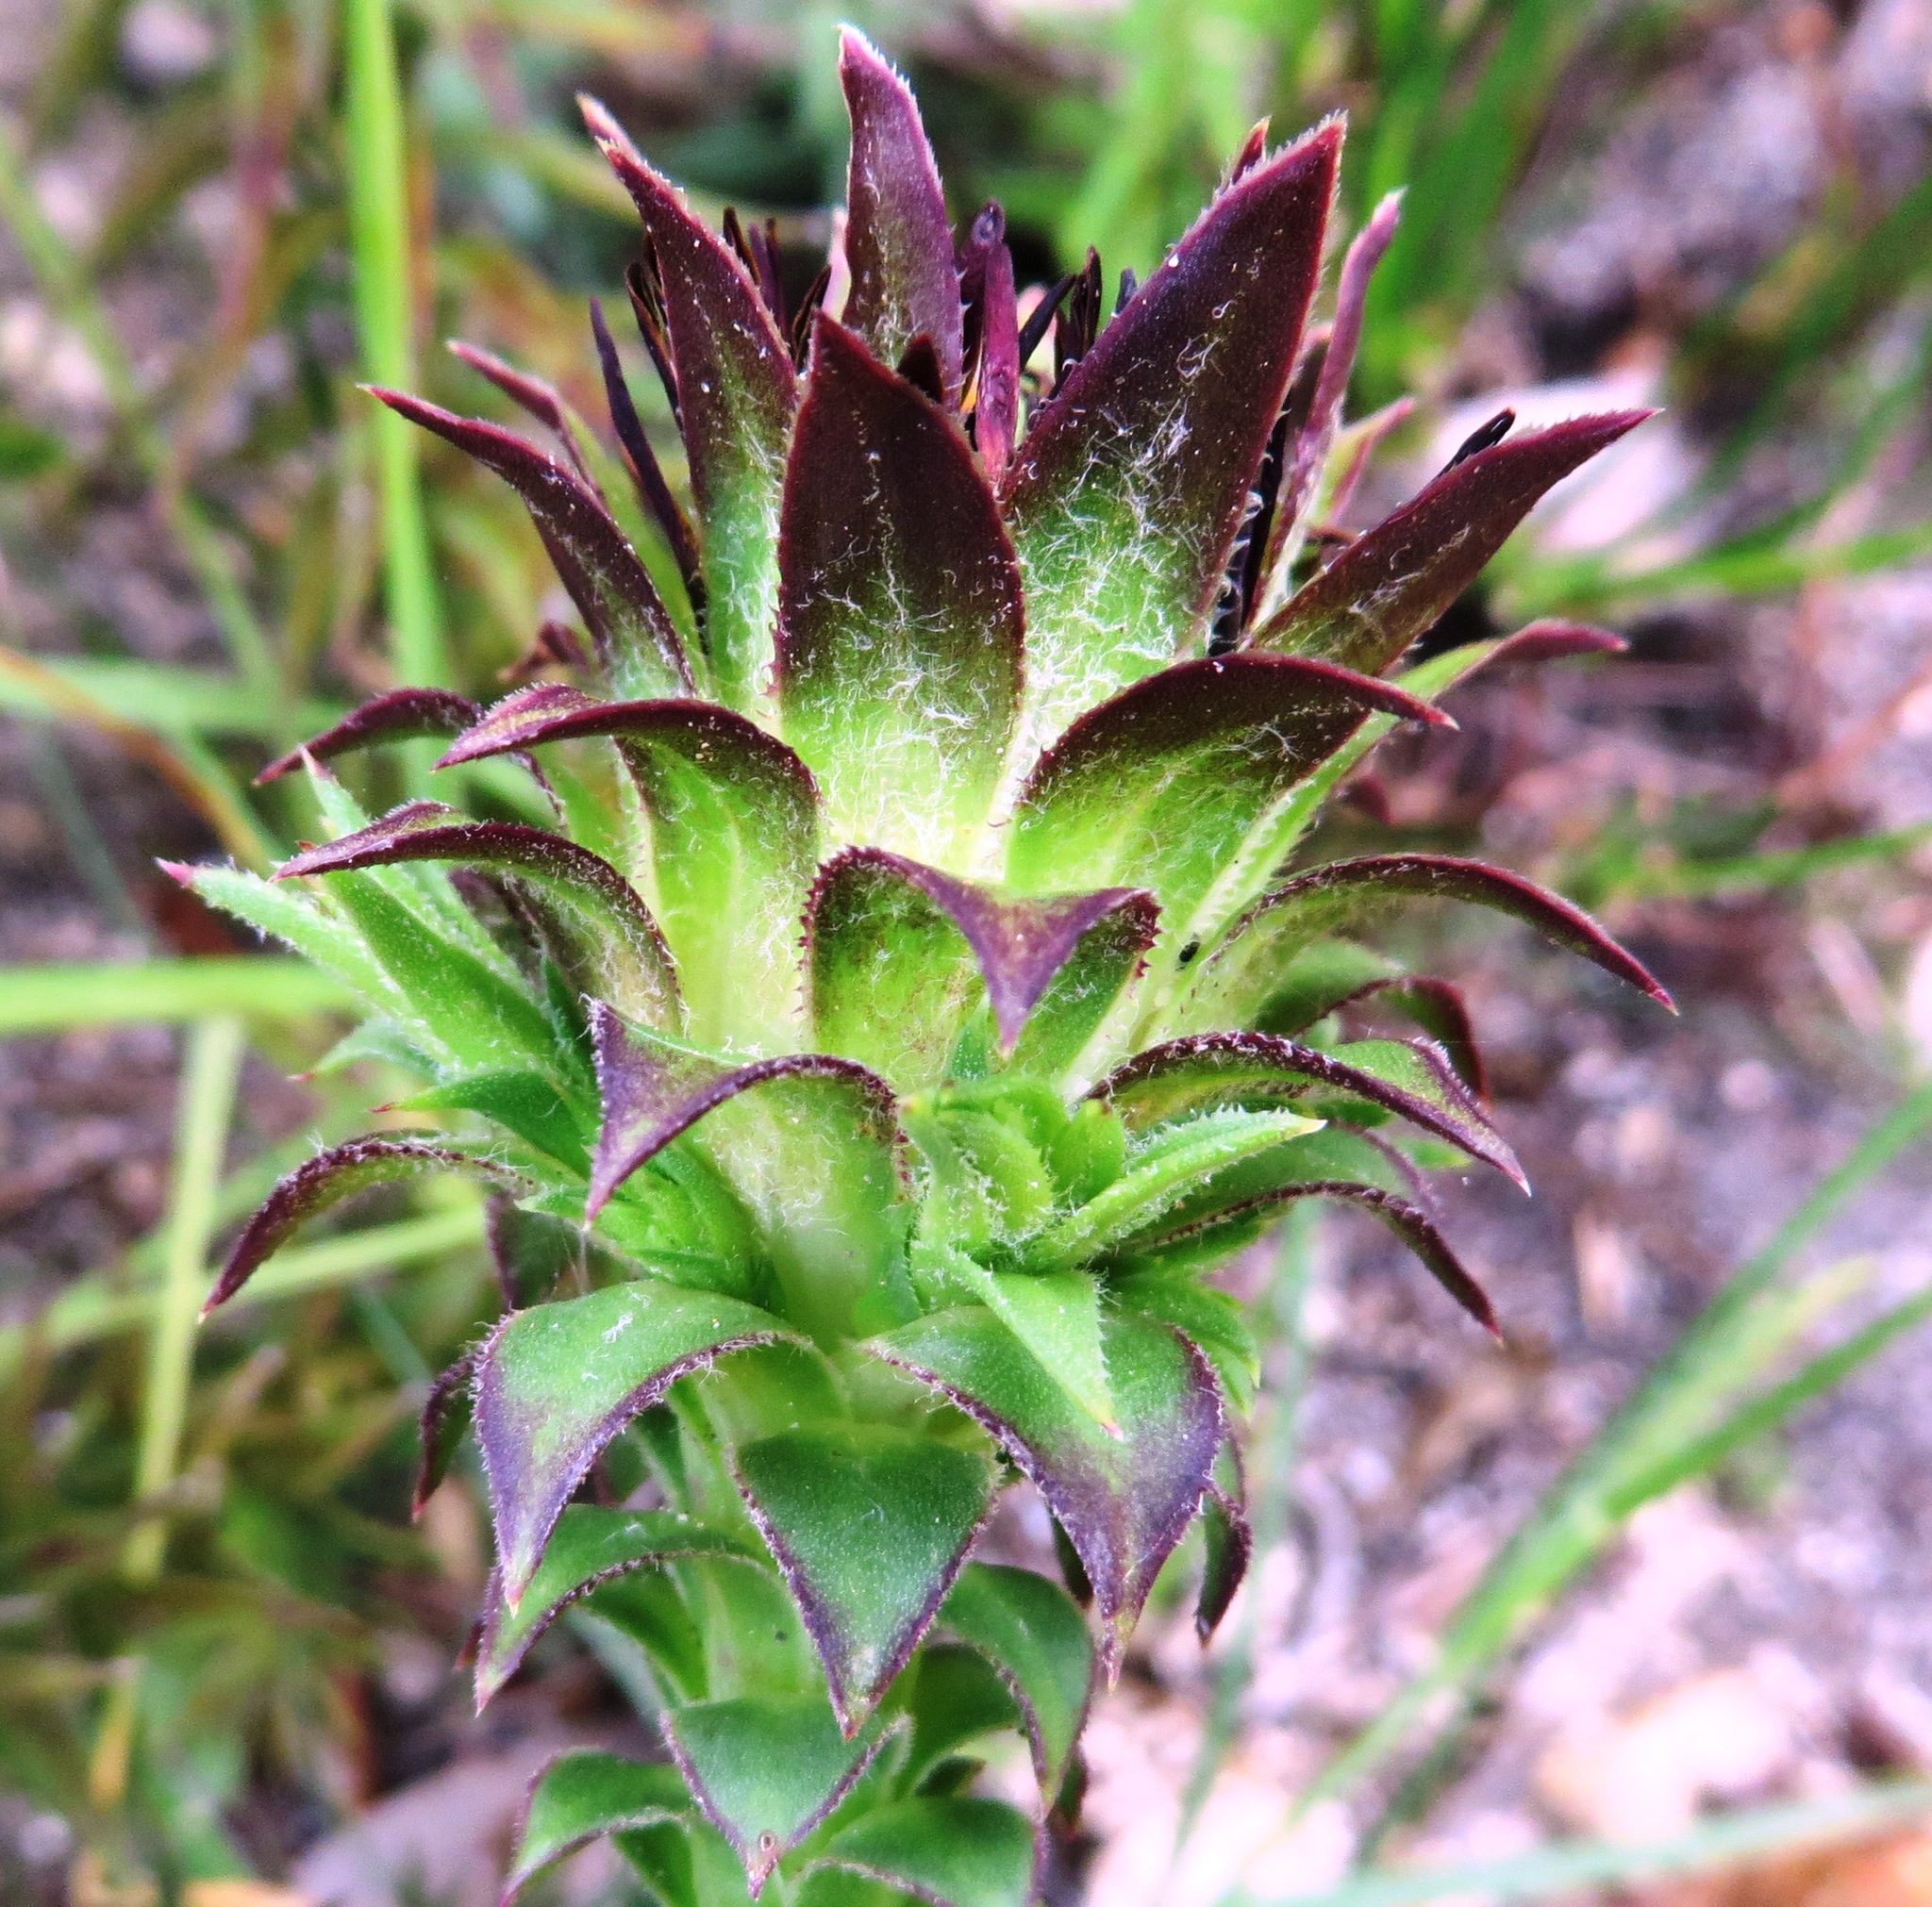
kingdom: Plantae
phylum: Tracheophyta
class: Magnoliopsida
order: Asterales
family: Asteraceae
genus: Oedera
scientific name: Oedera imbricata
